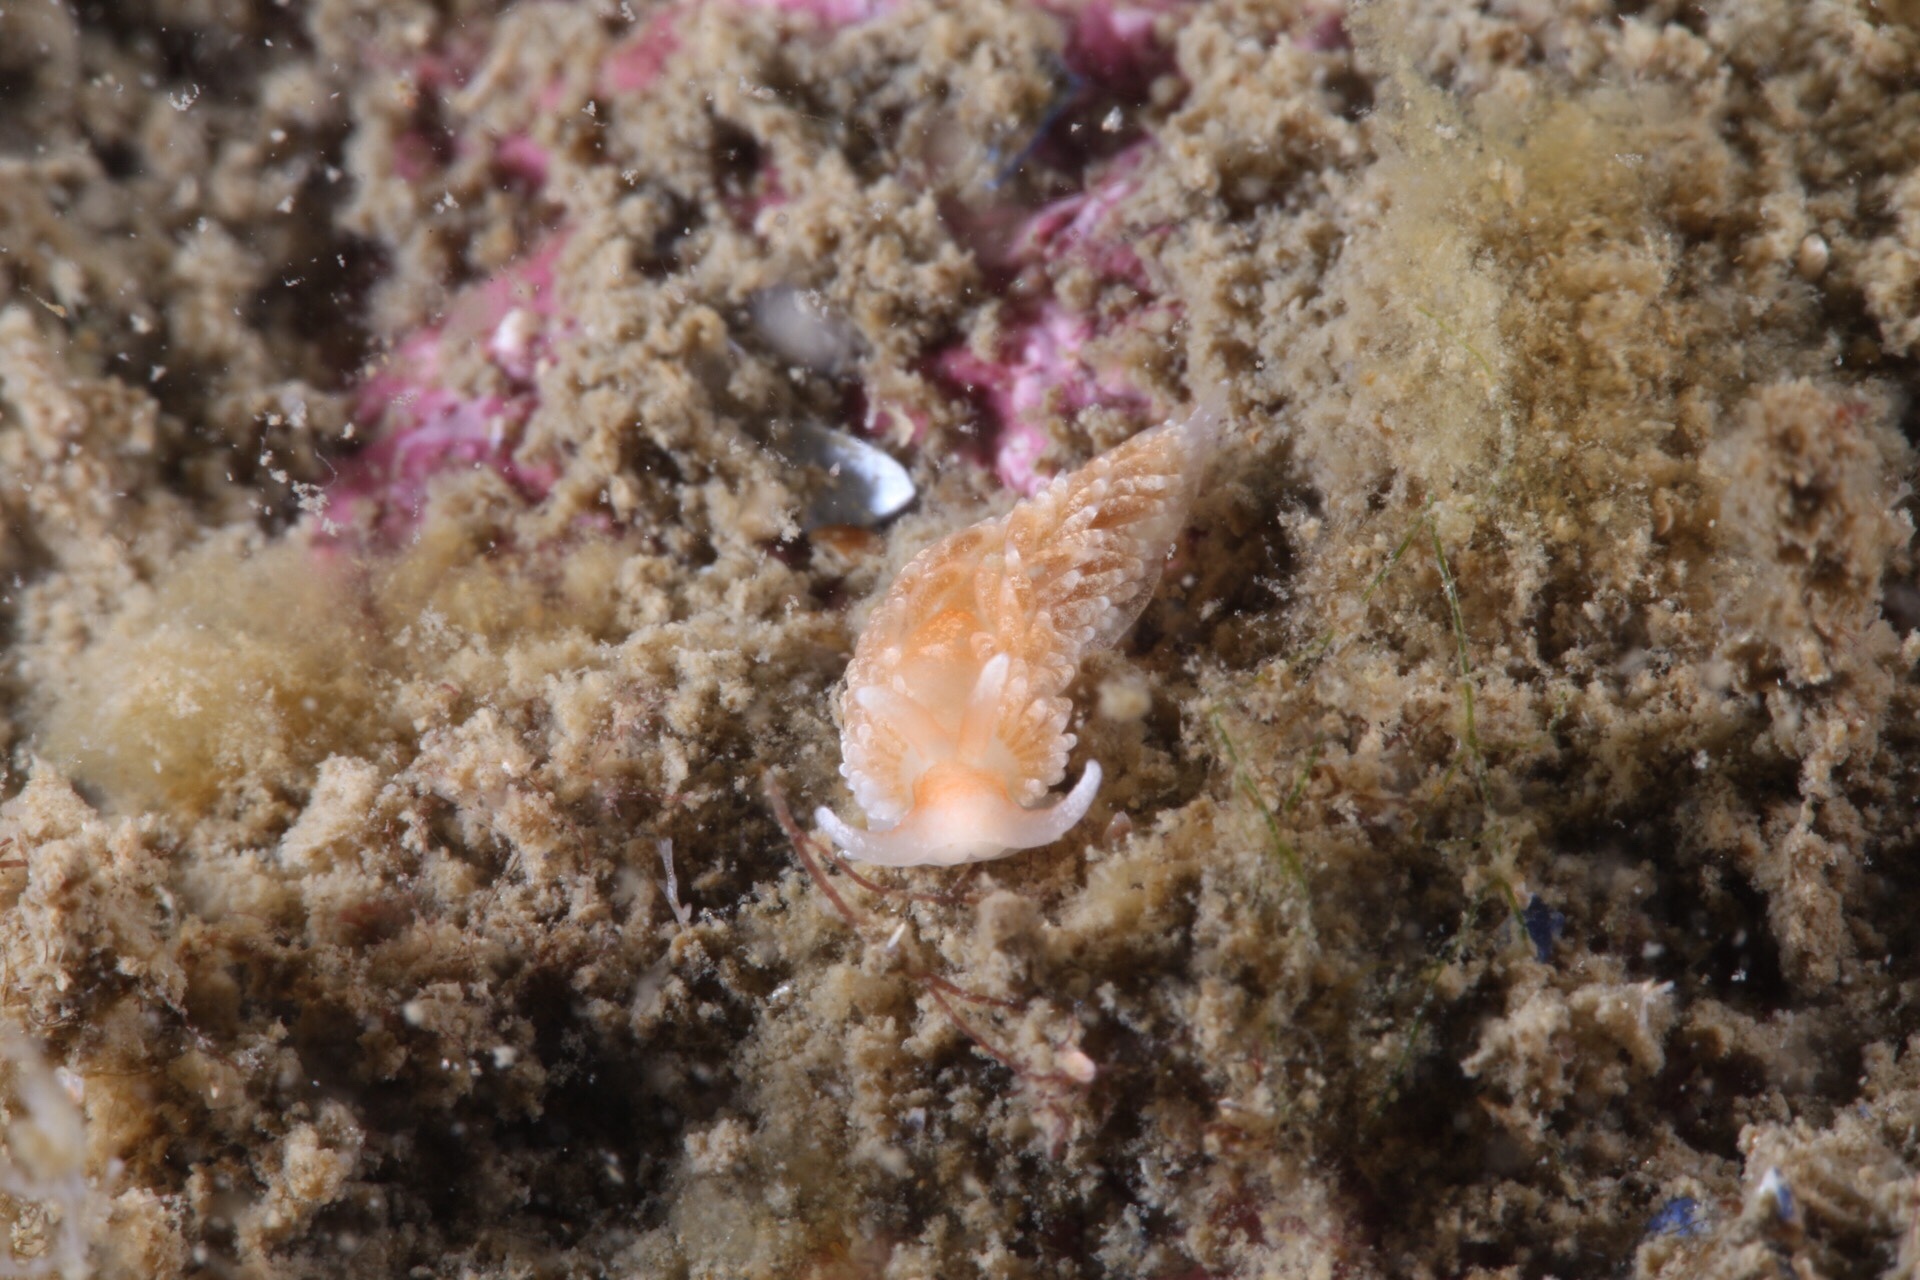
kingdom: Animalia
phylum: Mollusca
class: Gastropoda
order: Nudibranchia
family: Aeolidiidae
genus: Aeolidiella
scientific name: Aeolidiella glauca
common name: Orange-brown aeolid
